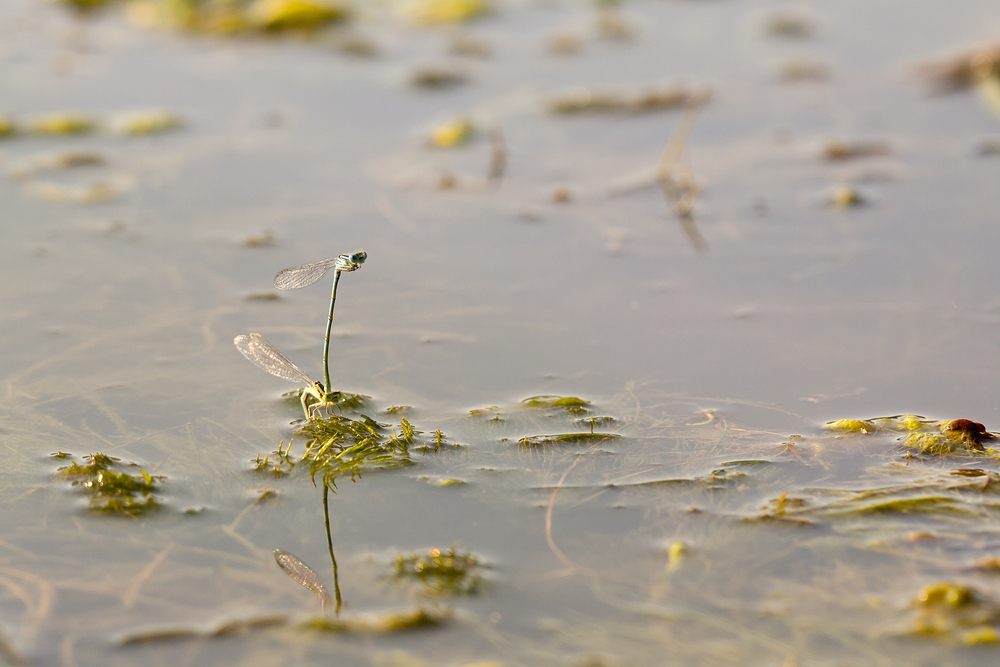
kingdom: Animalia
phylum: Arthropoda
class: Insecta
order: Odonata
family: Coenagrionidae
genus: Erythromma
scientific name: Erythromma lindenii
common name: Blue-eye
